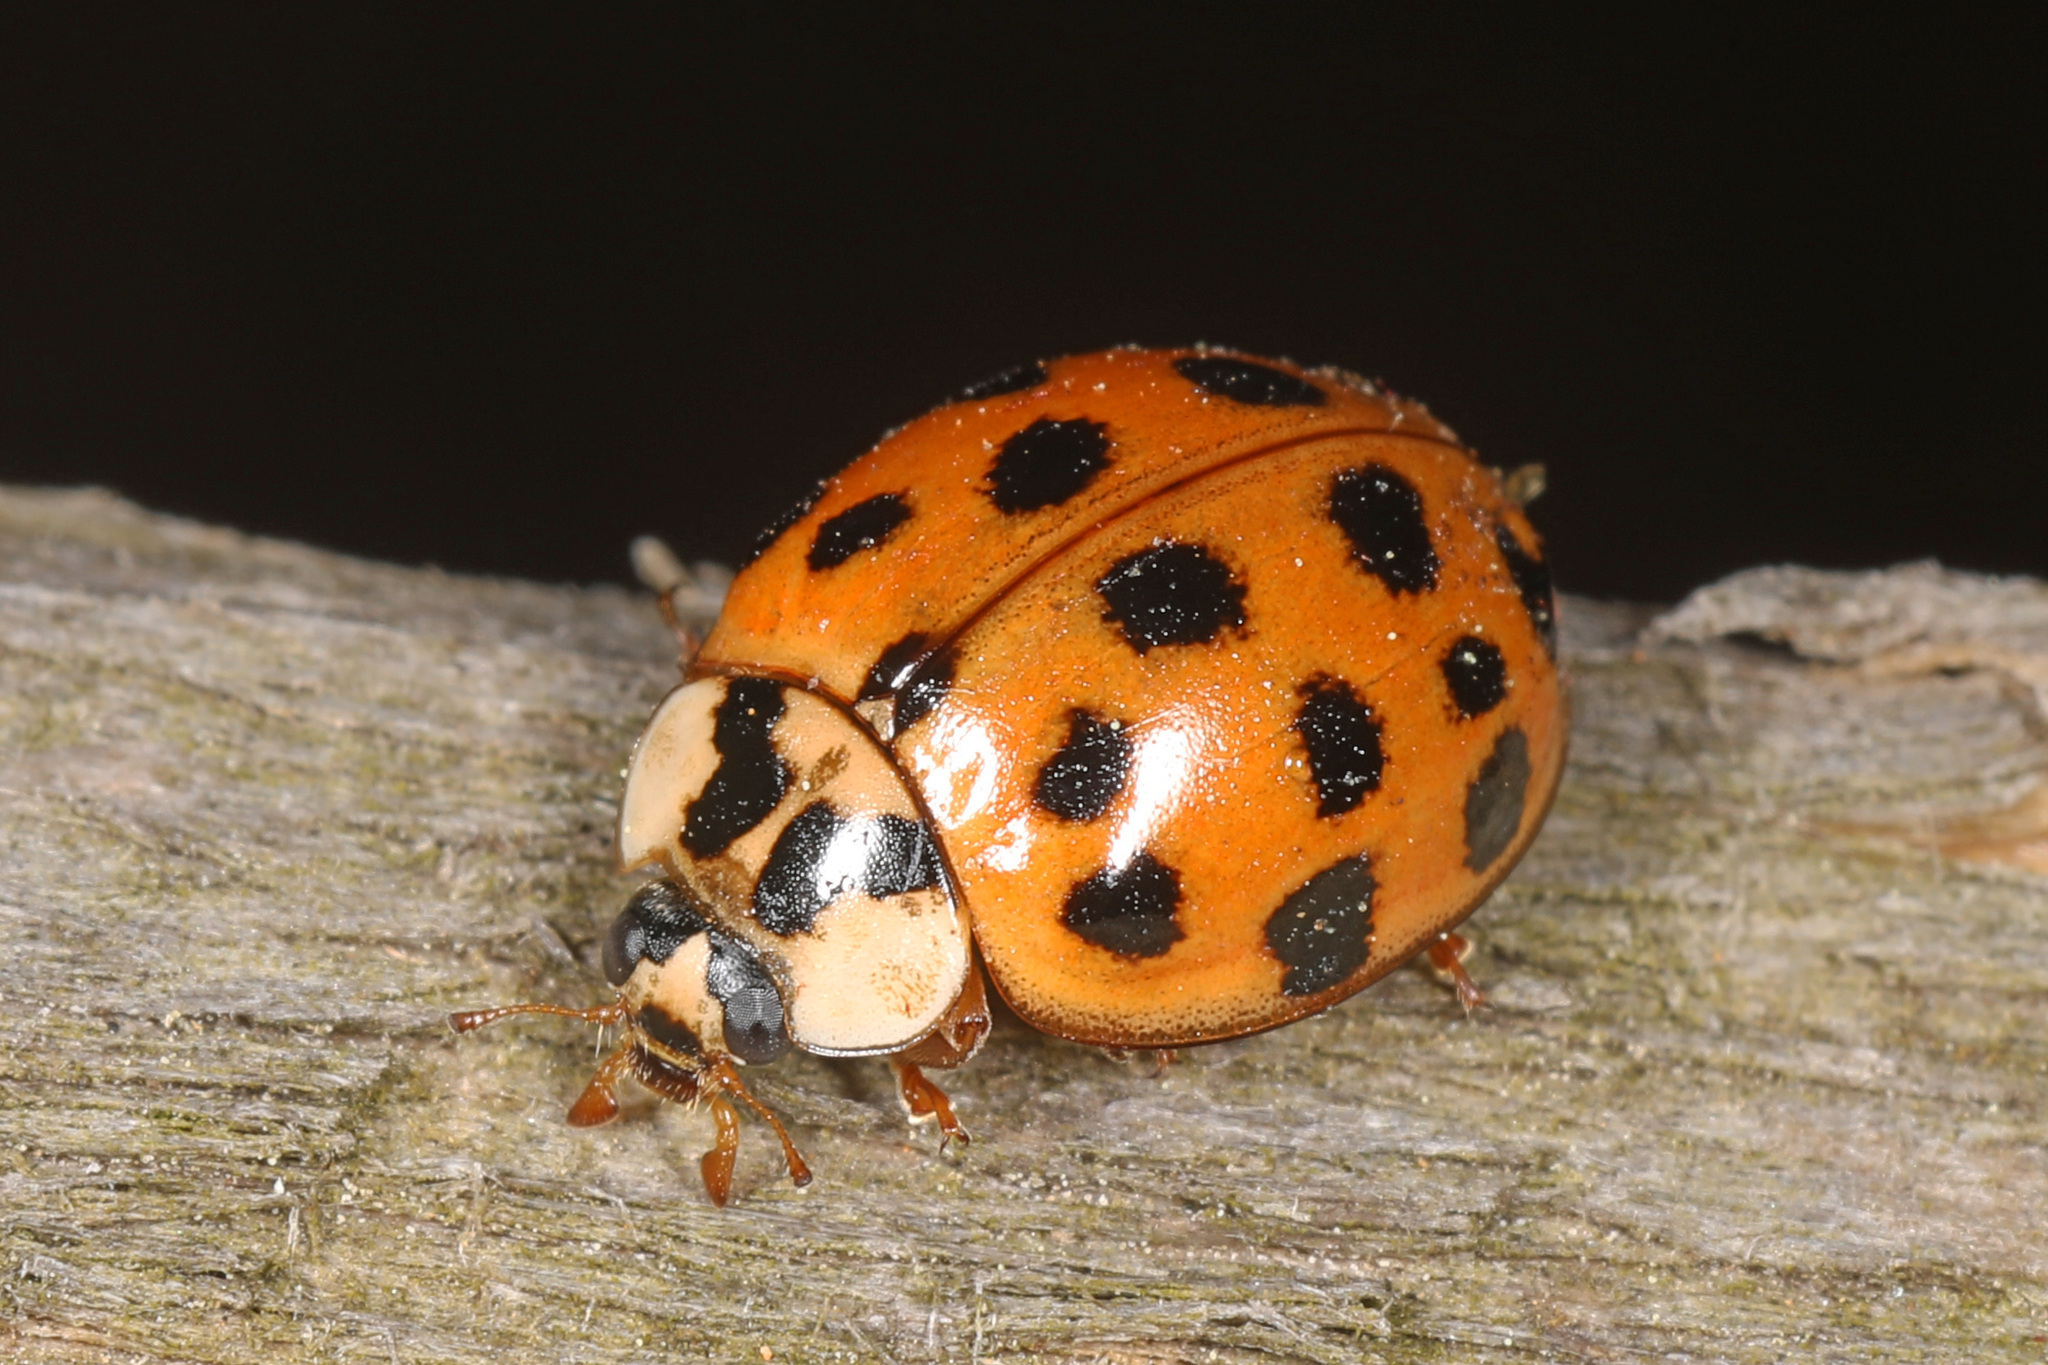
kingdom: Animalia
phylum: Arthropoda
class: Insecta
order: Coleoptera
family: Coccinellidae
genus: Harmonia
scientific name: Harmonia axyridis
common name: Harlequin ladybird
